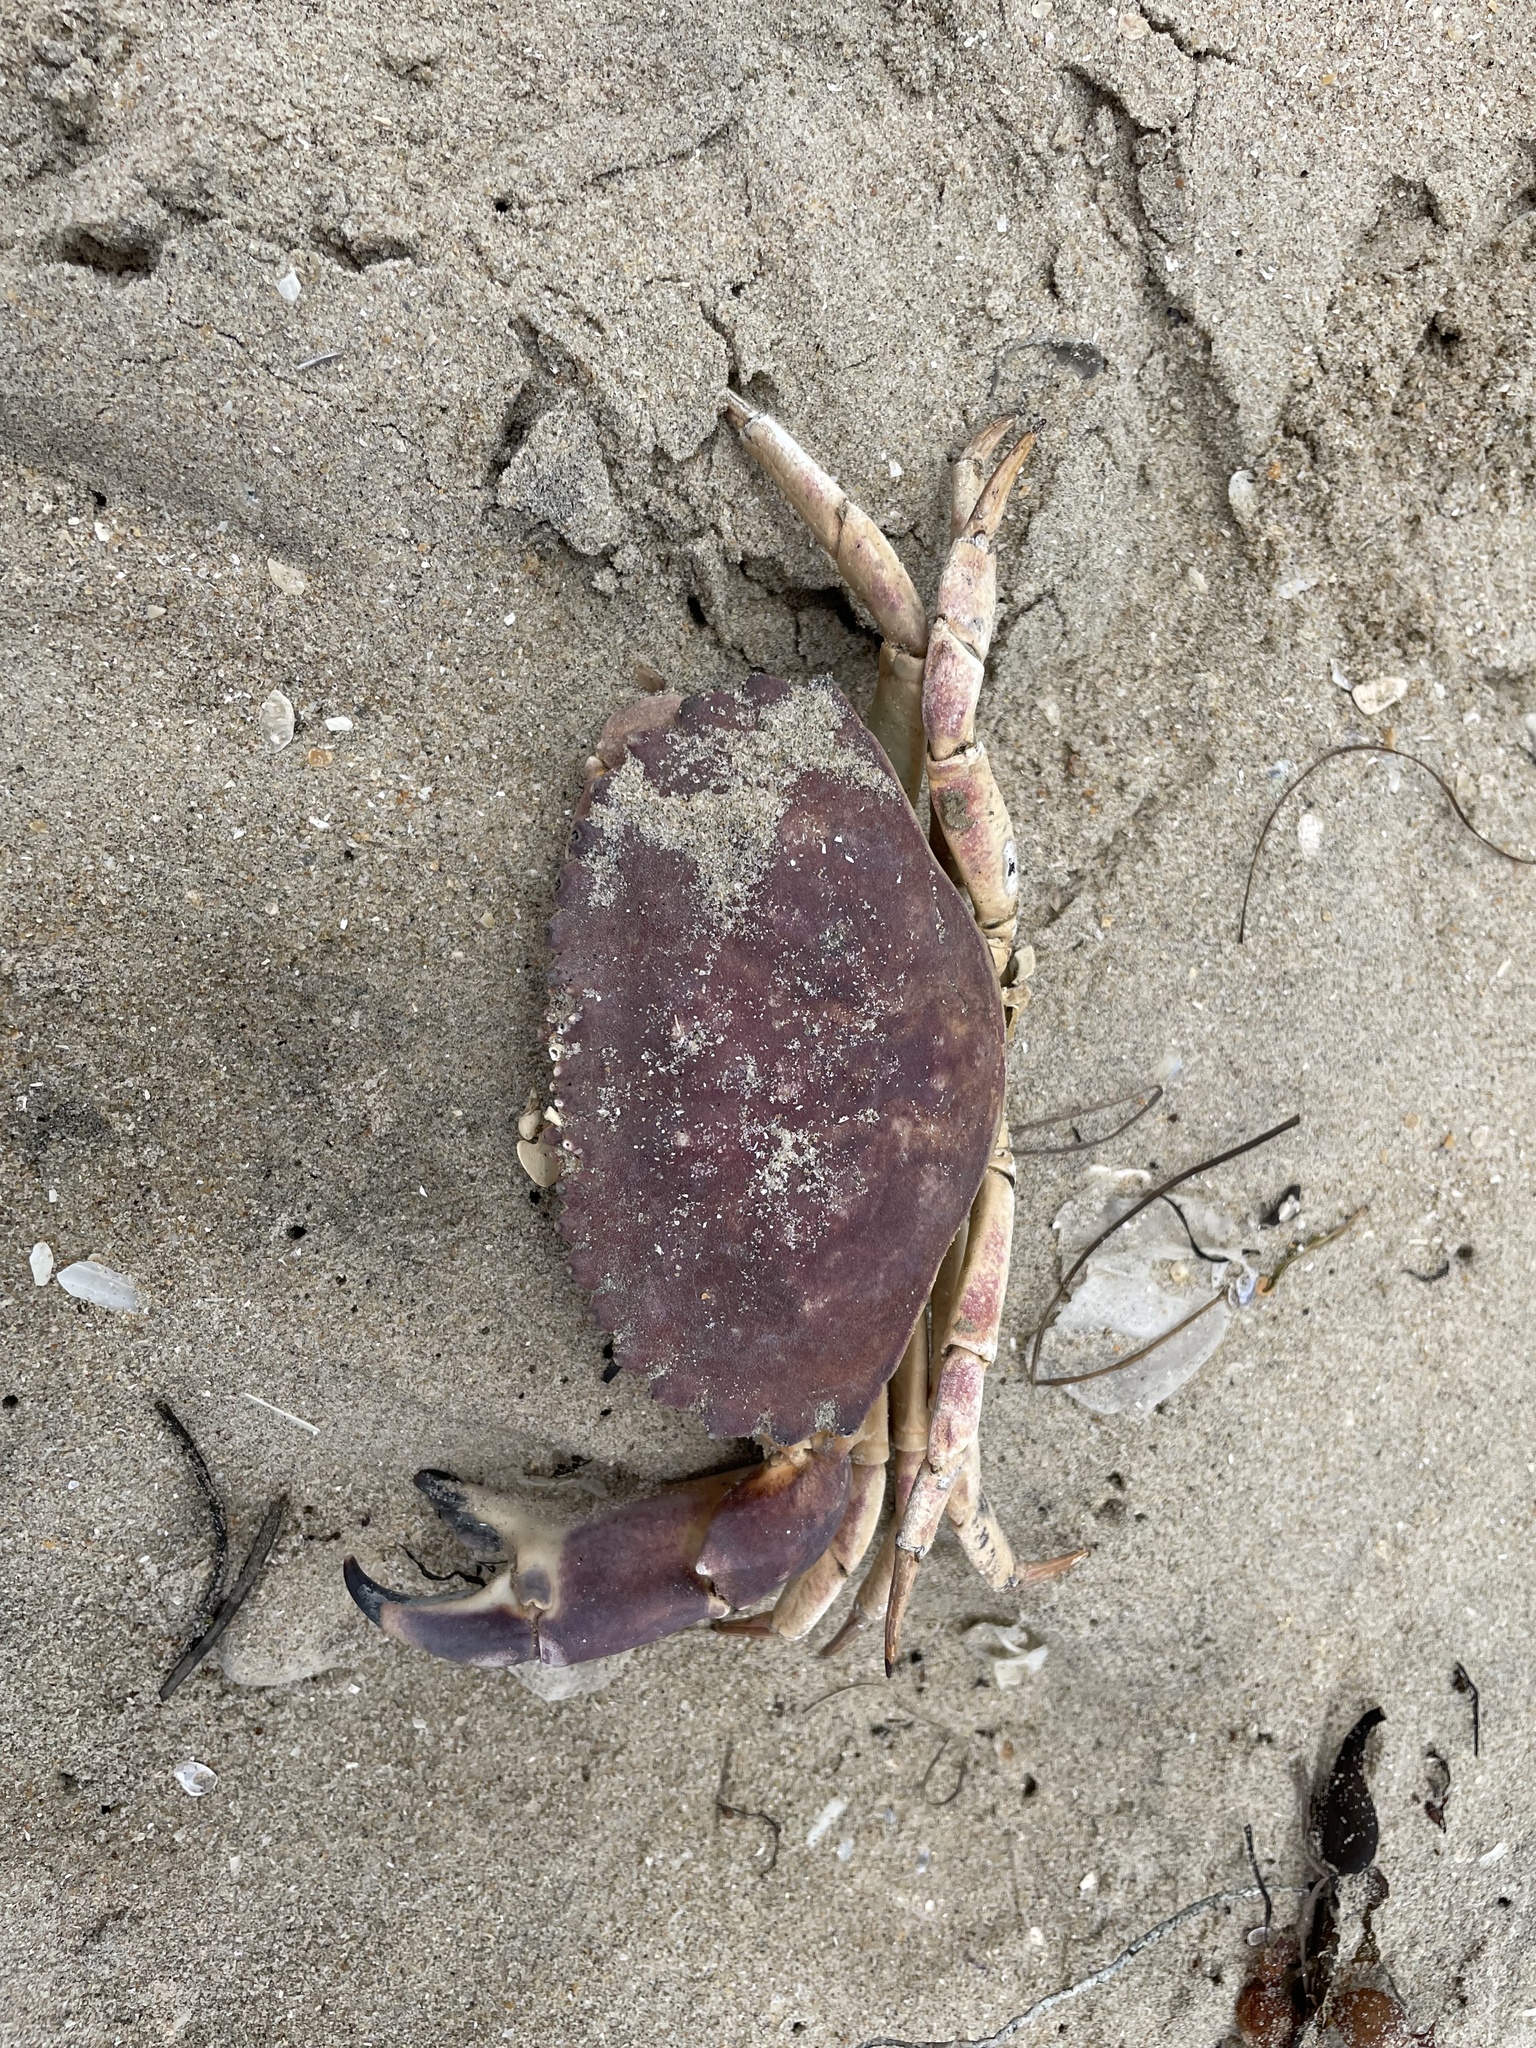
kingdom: Animalia
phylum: Arthropoda
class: Malacostraca
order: Decapoda
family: Cancridae
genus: Metacarcinus
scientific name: Metacarcinus anthonyi
